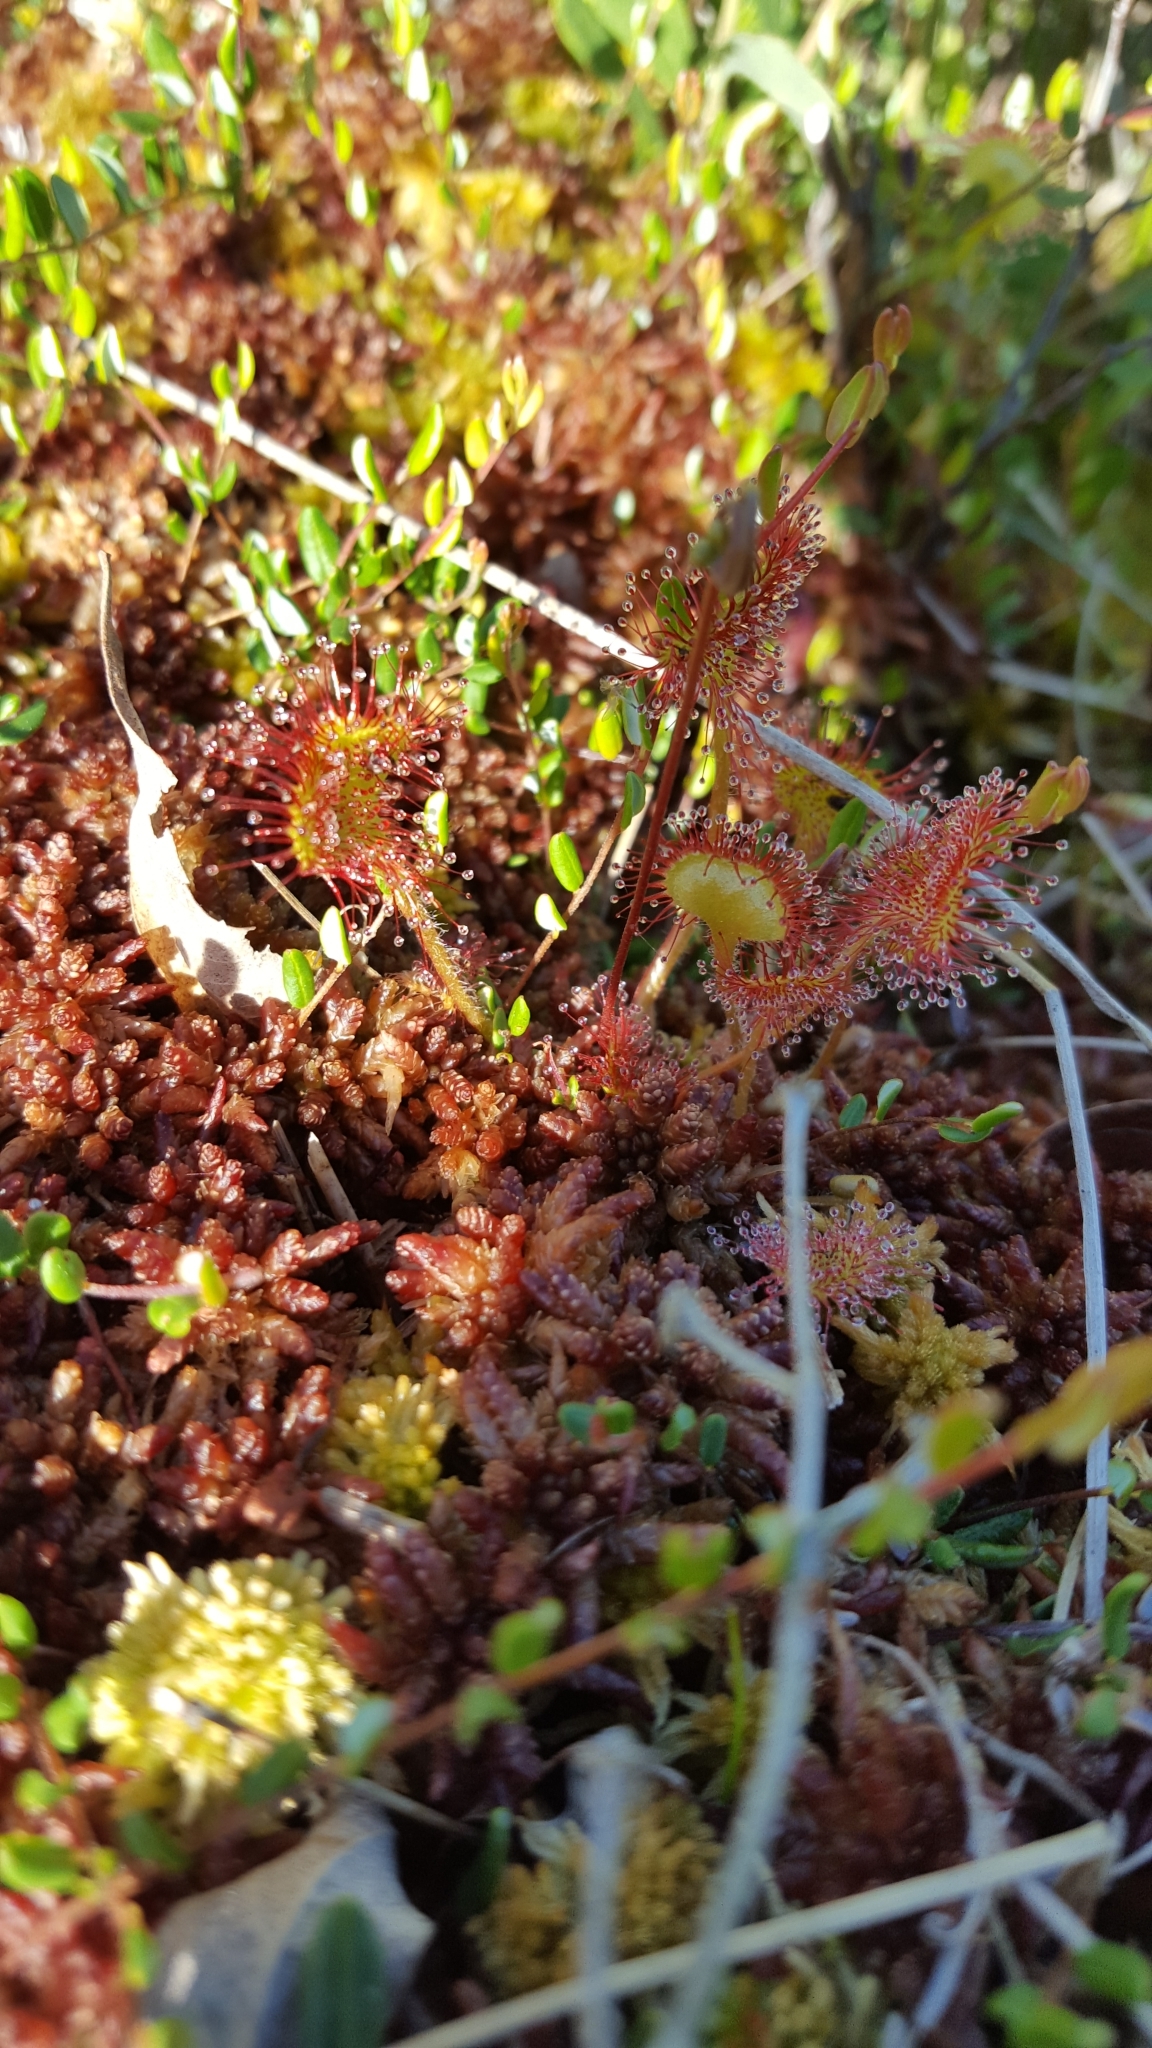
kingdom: Plantae
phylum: Tracheophyta
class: Magnoliopsida
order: Caryophyllales
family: Droseraceae
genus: Drosera
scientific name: Drosera rotundifolia
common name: Round-leaved sundew
